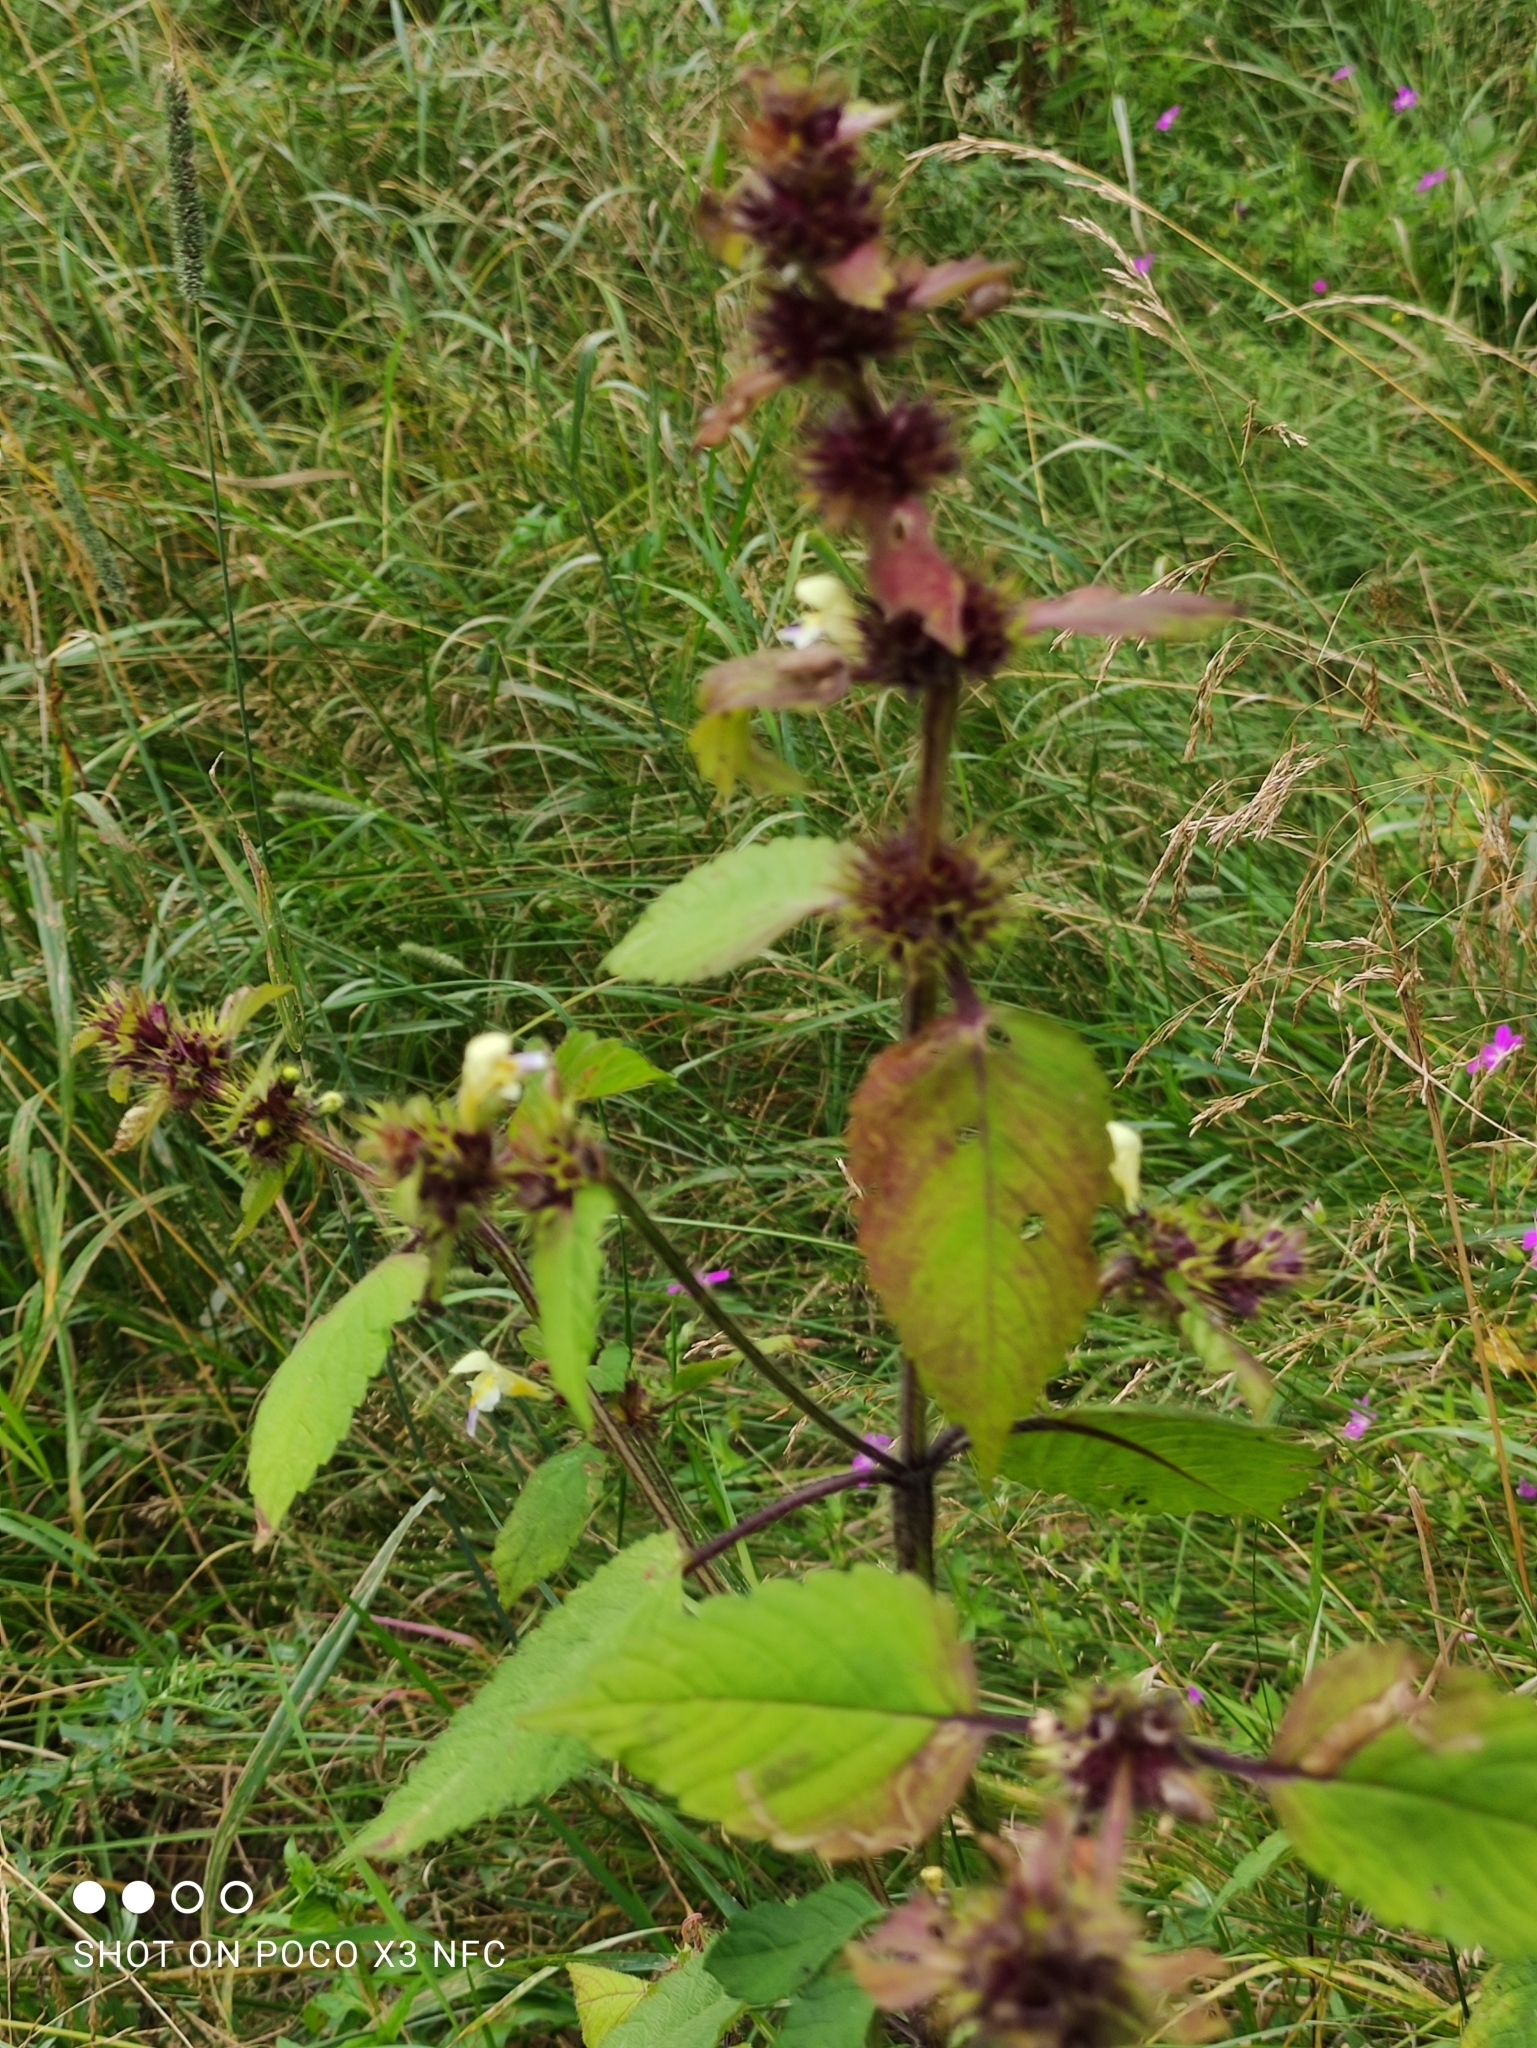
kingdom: Plantae
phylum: Tracheophyta
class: Magnoliopsida
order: Lamiales
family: Lamiaceae
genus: Galeopsis
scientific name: Galeopsis speciosa
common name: Large-flowered hemp-nettle
